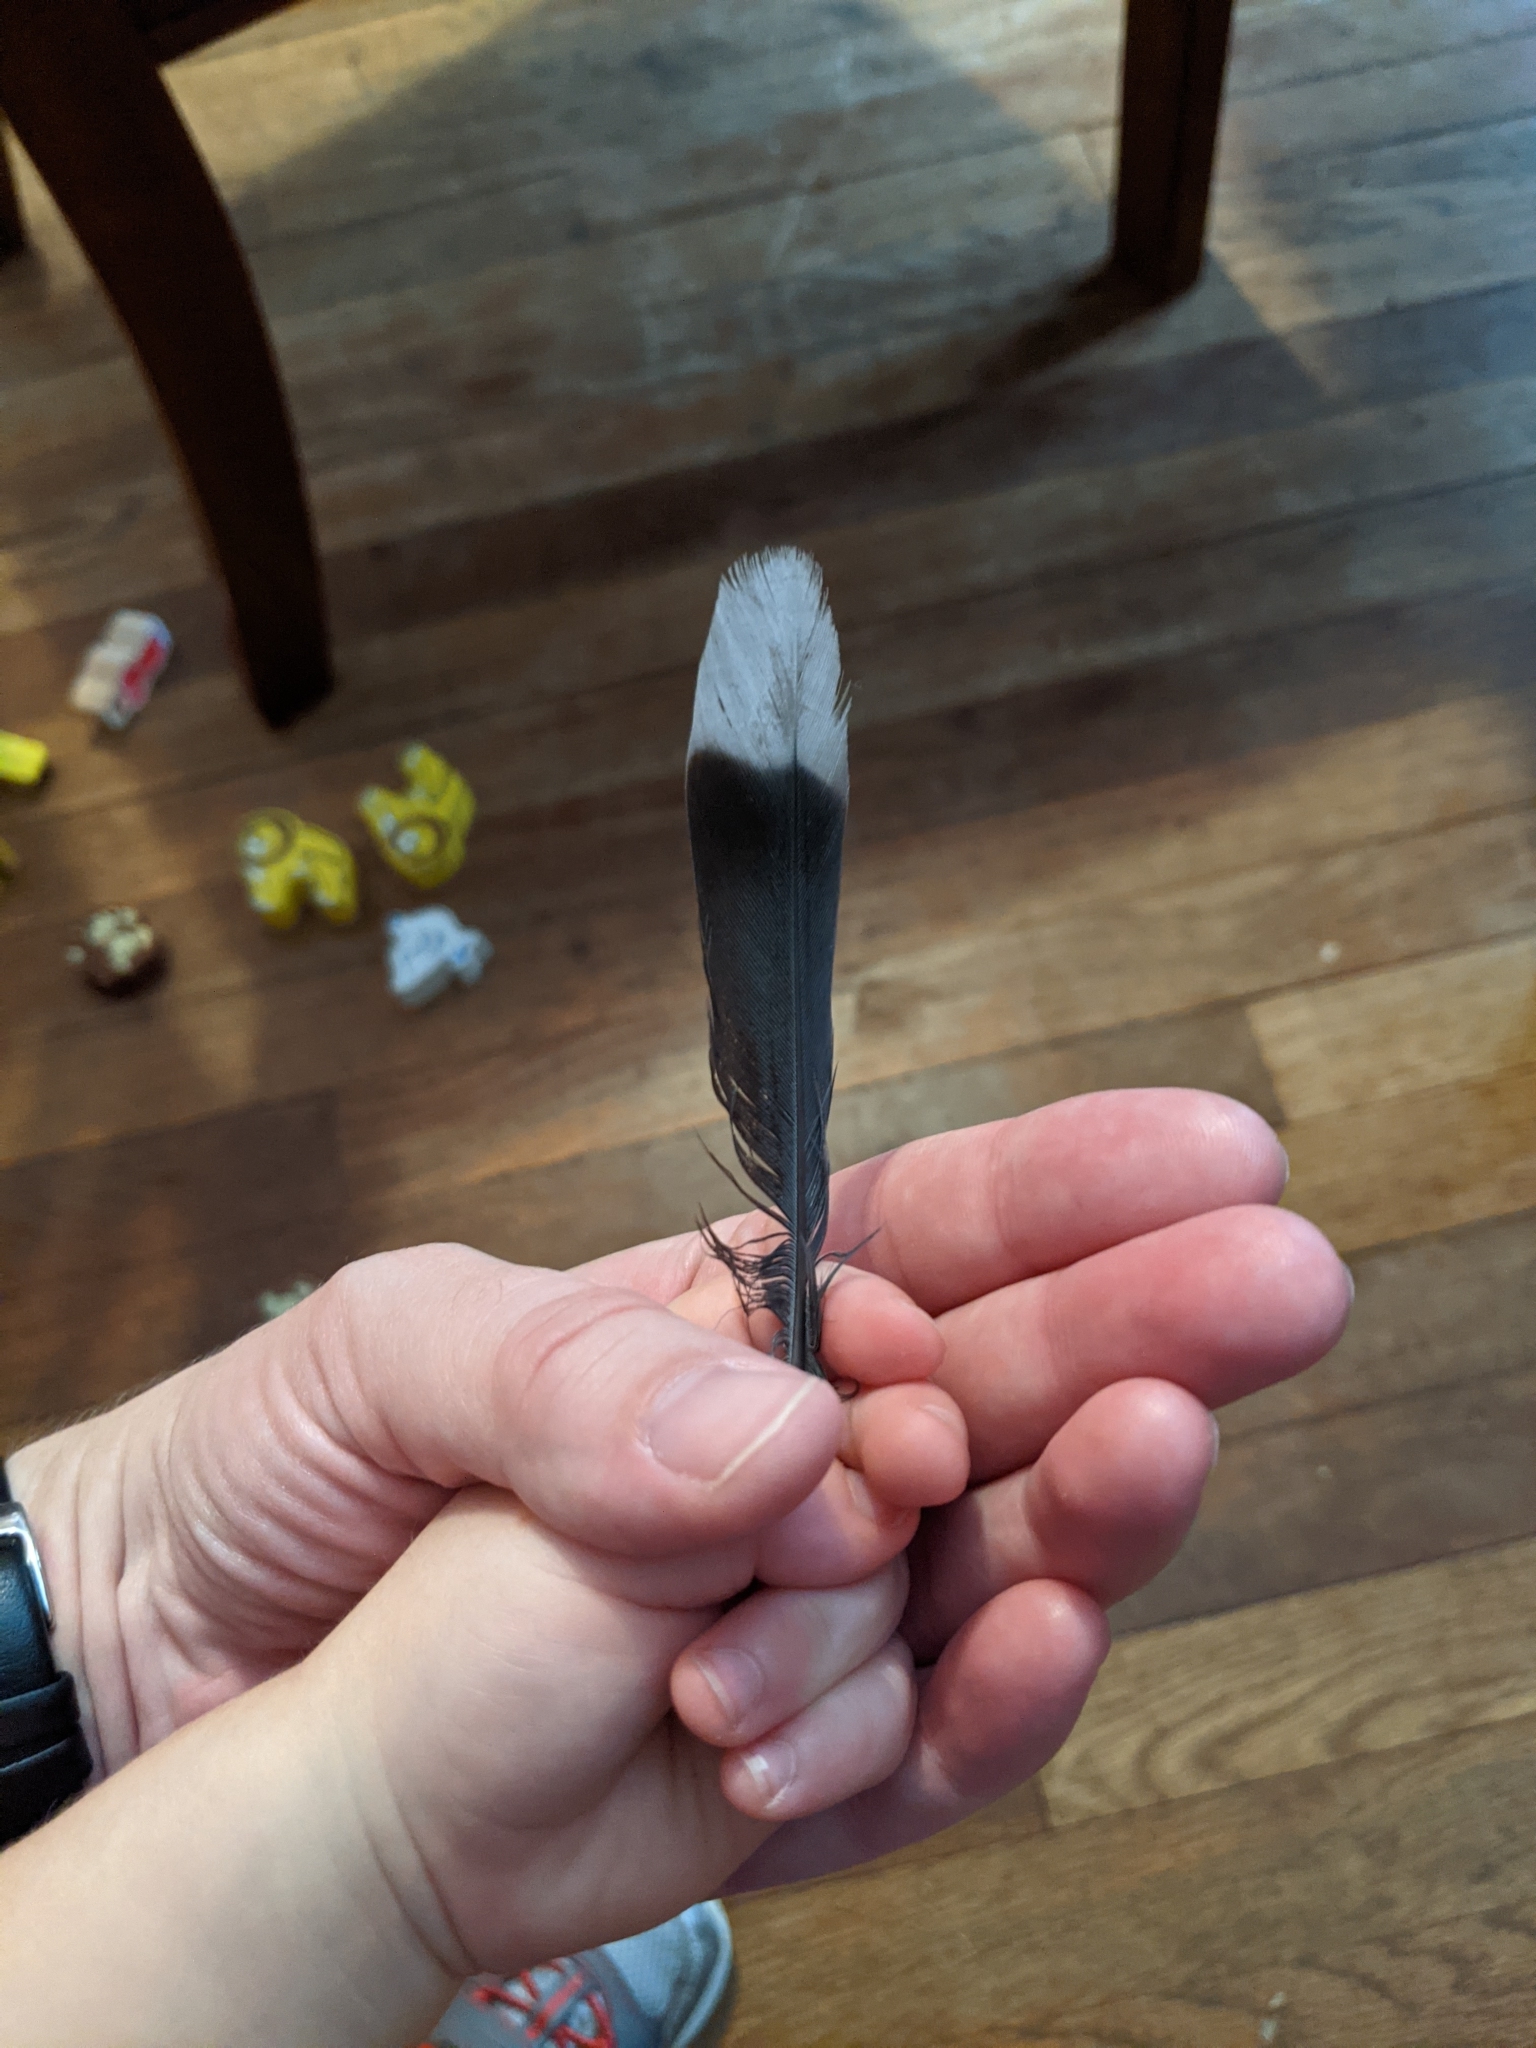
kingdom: Animalia
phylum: Chordata
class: Aves
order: Columbiformes
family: Columbidae
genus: Zenaida
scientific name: Zenaida asiatica
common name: White-winged dove
